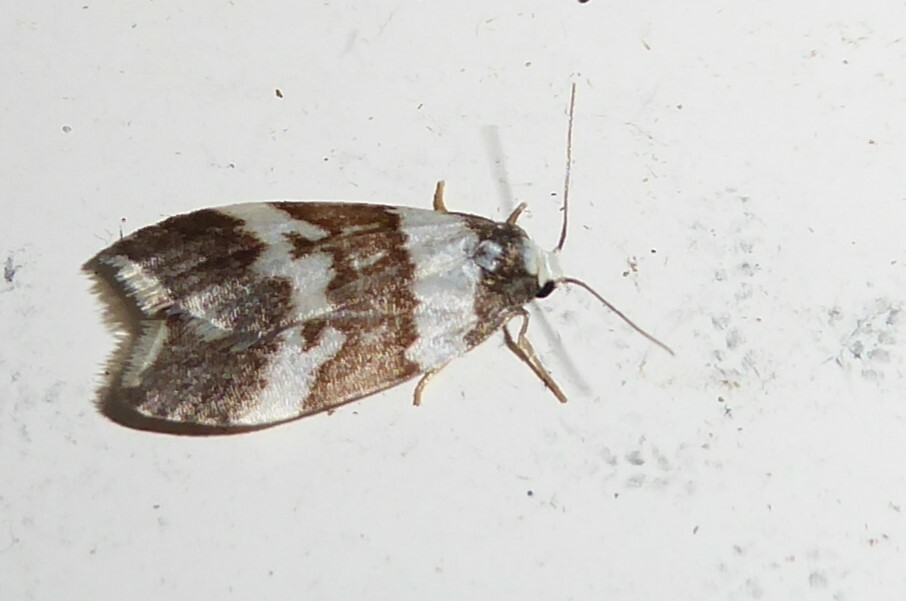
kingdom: Animalia
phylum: Arthropoda
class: Insecta
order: Lepidoptera
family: Erebidae
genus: Halone
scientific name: Halone sejuncta
